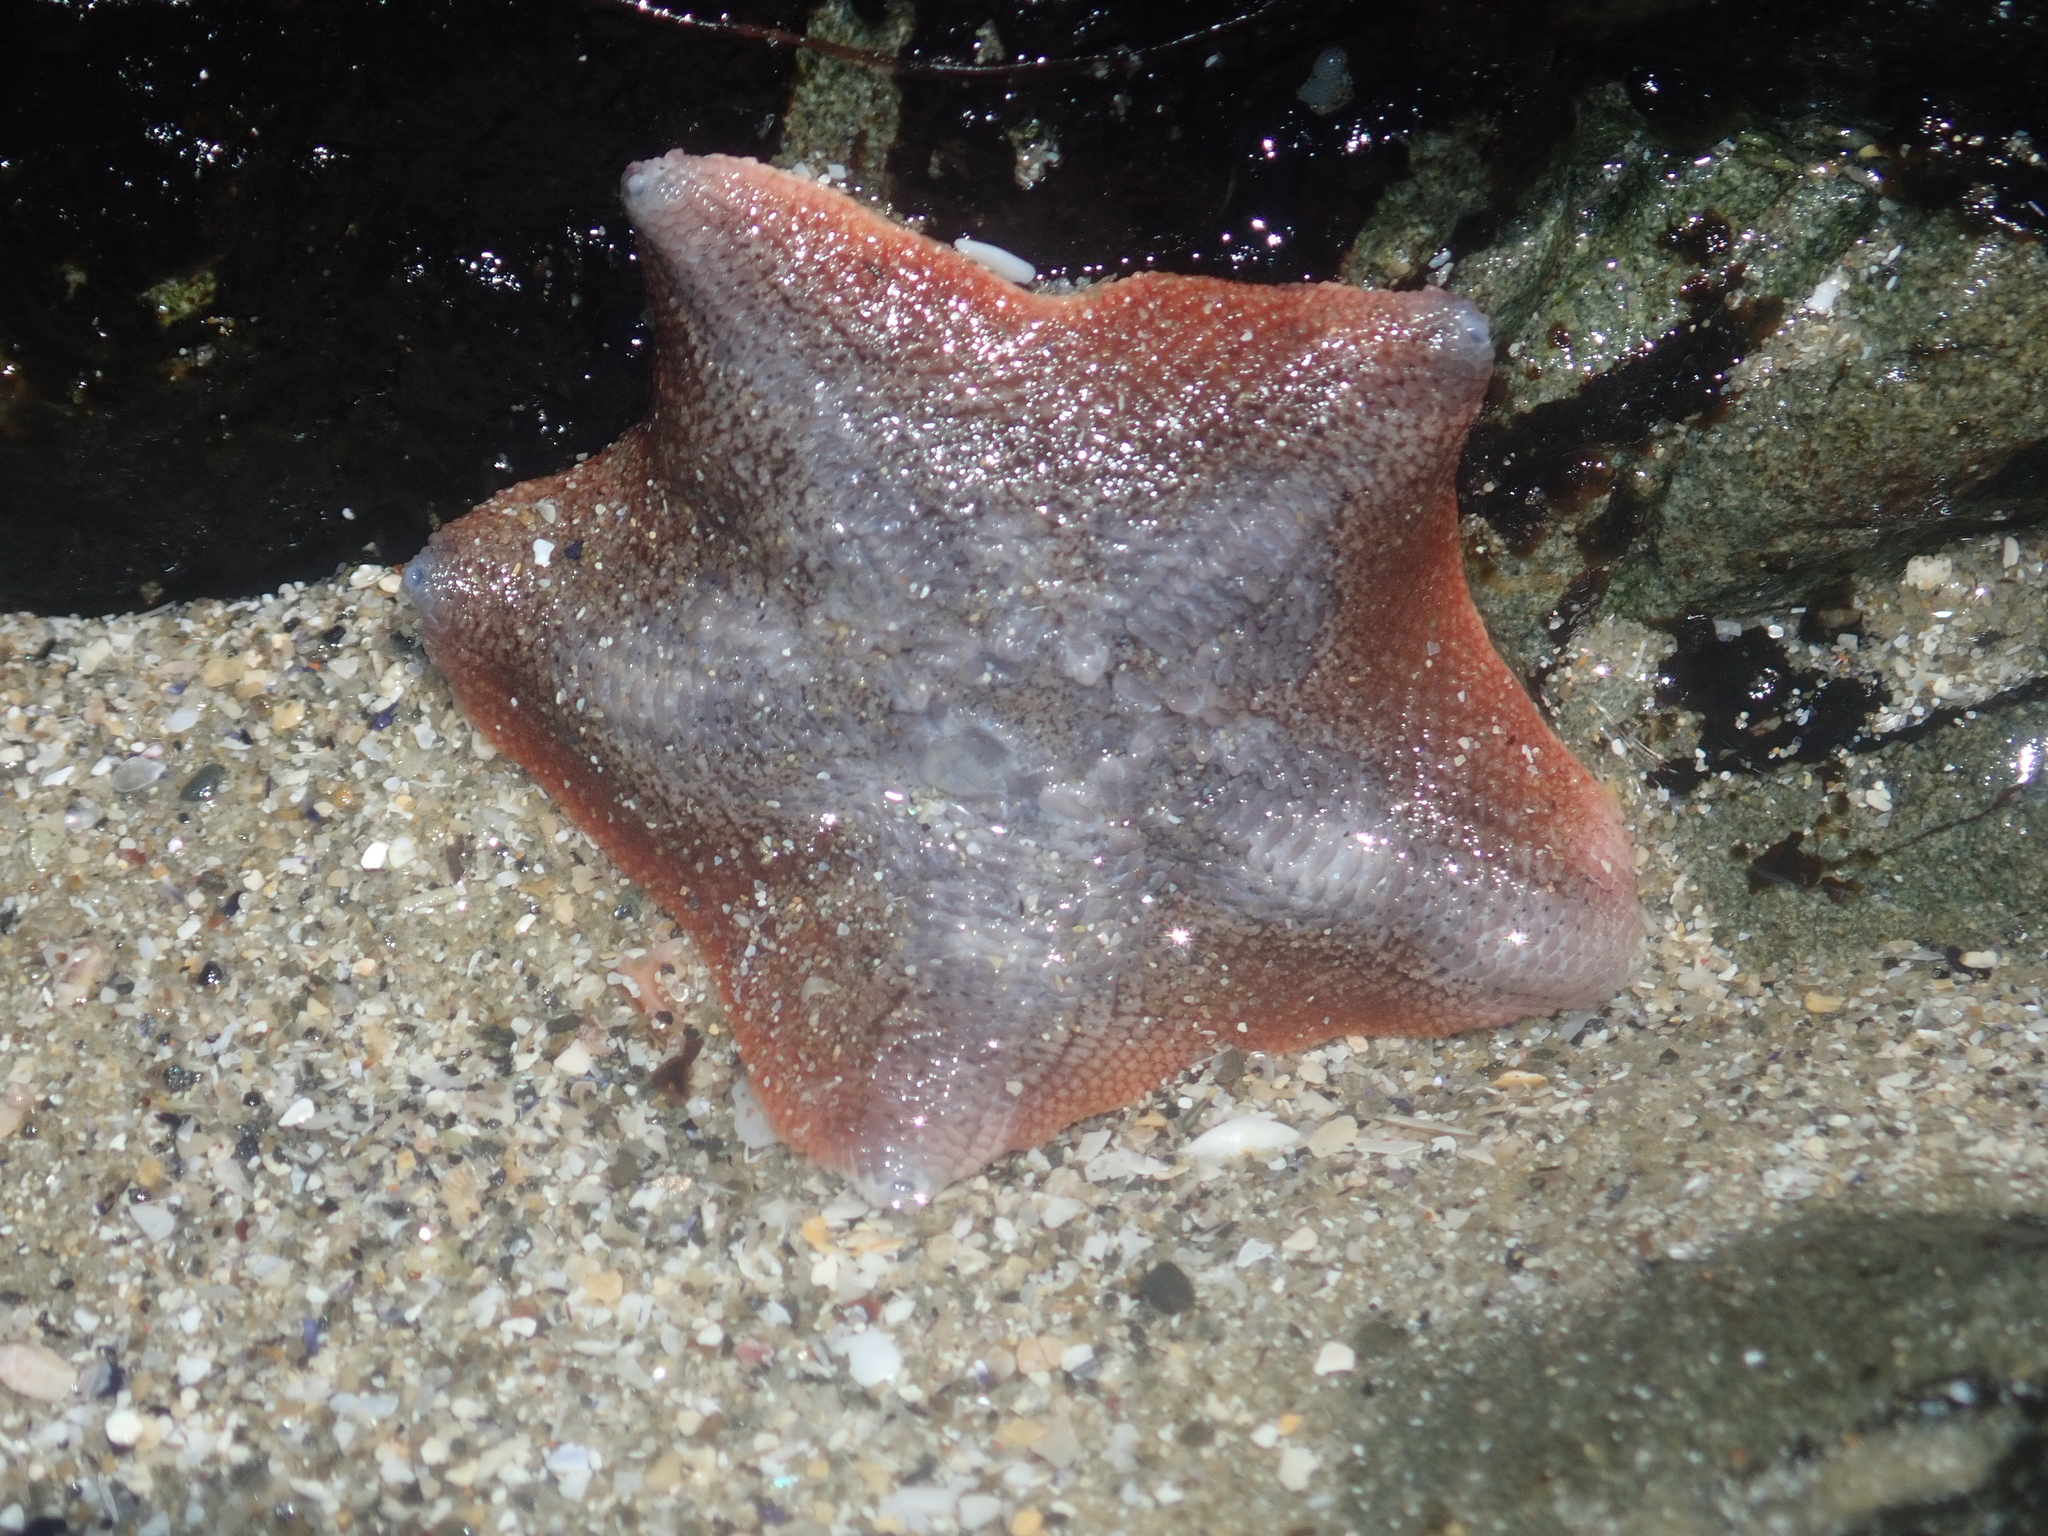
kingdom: Animalia
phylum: Echinodermata
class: Asteroidea
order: Valvatida
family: Asterinidae
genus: Patiriella
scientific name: Patiriella regularis
